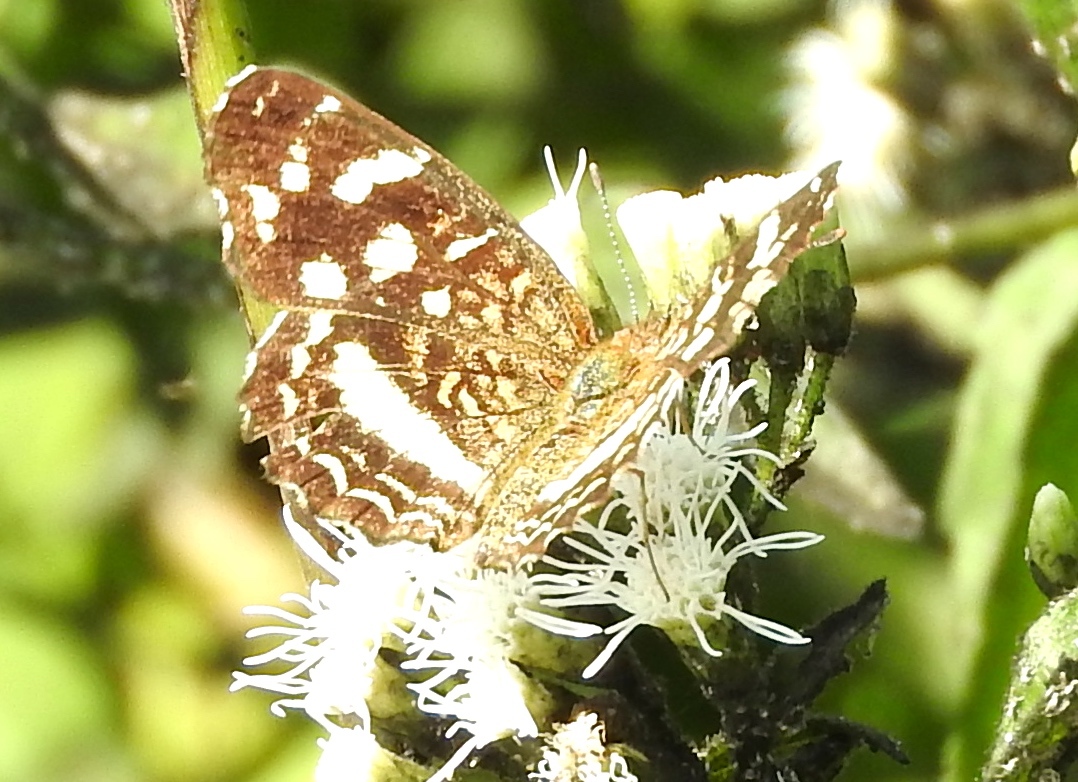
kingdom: Animalia
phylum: Arthropoda
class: Insecta
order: Lepidoptera
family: Nymphalidae
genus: Anthanassa
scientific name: Anthanassa tulcis
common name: Pale-banded crescent
